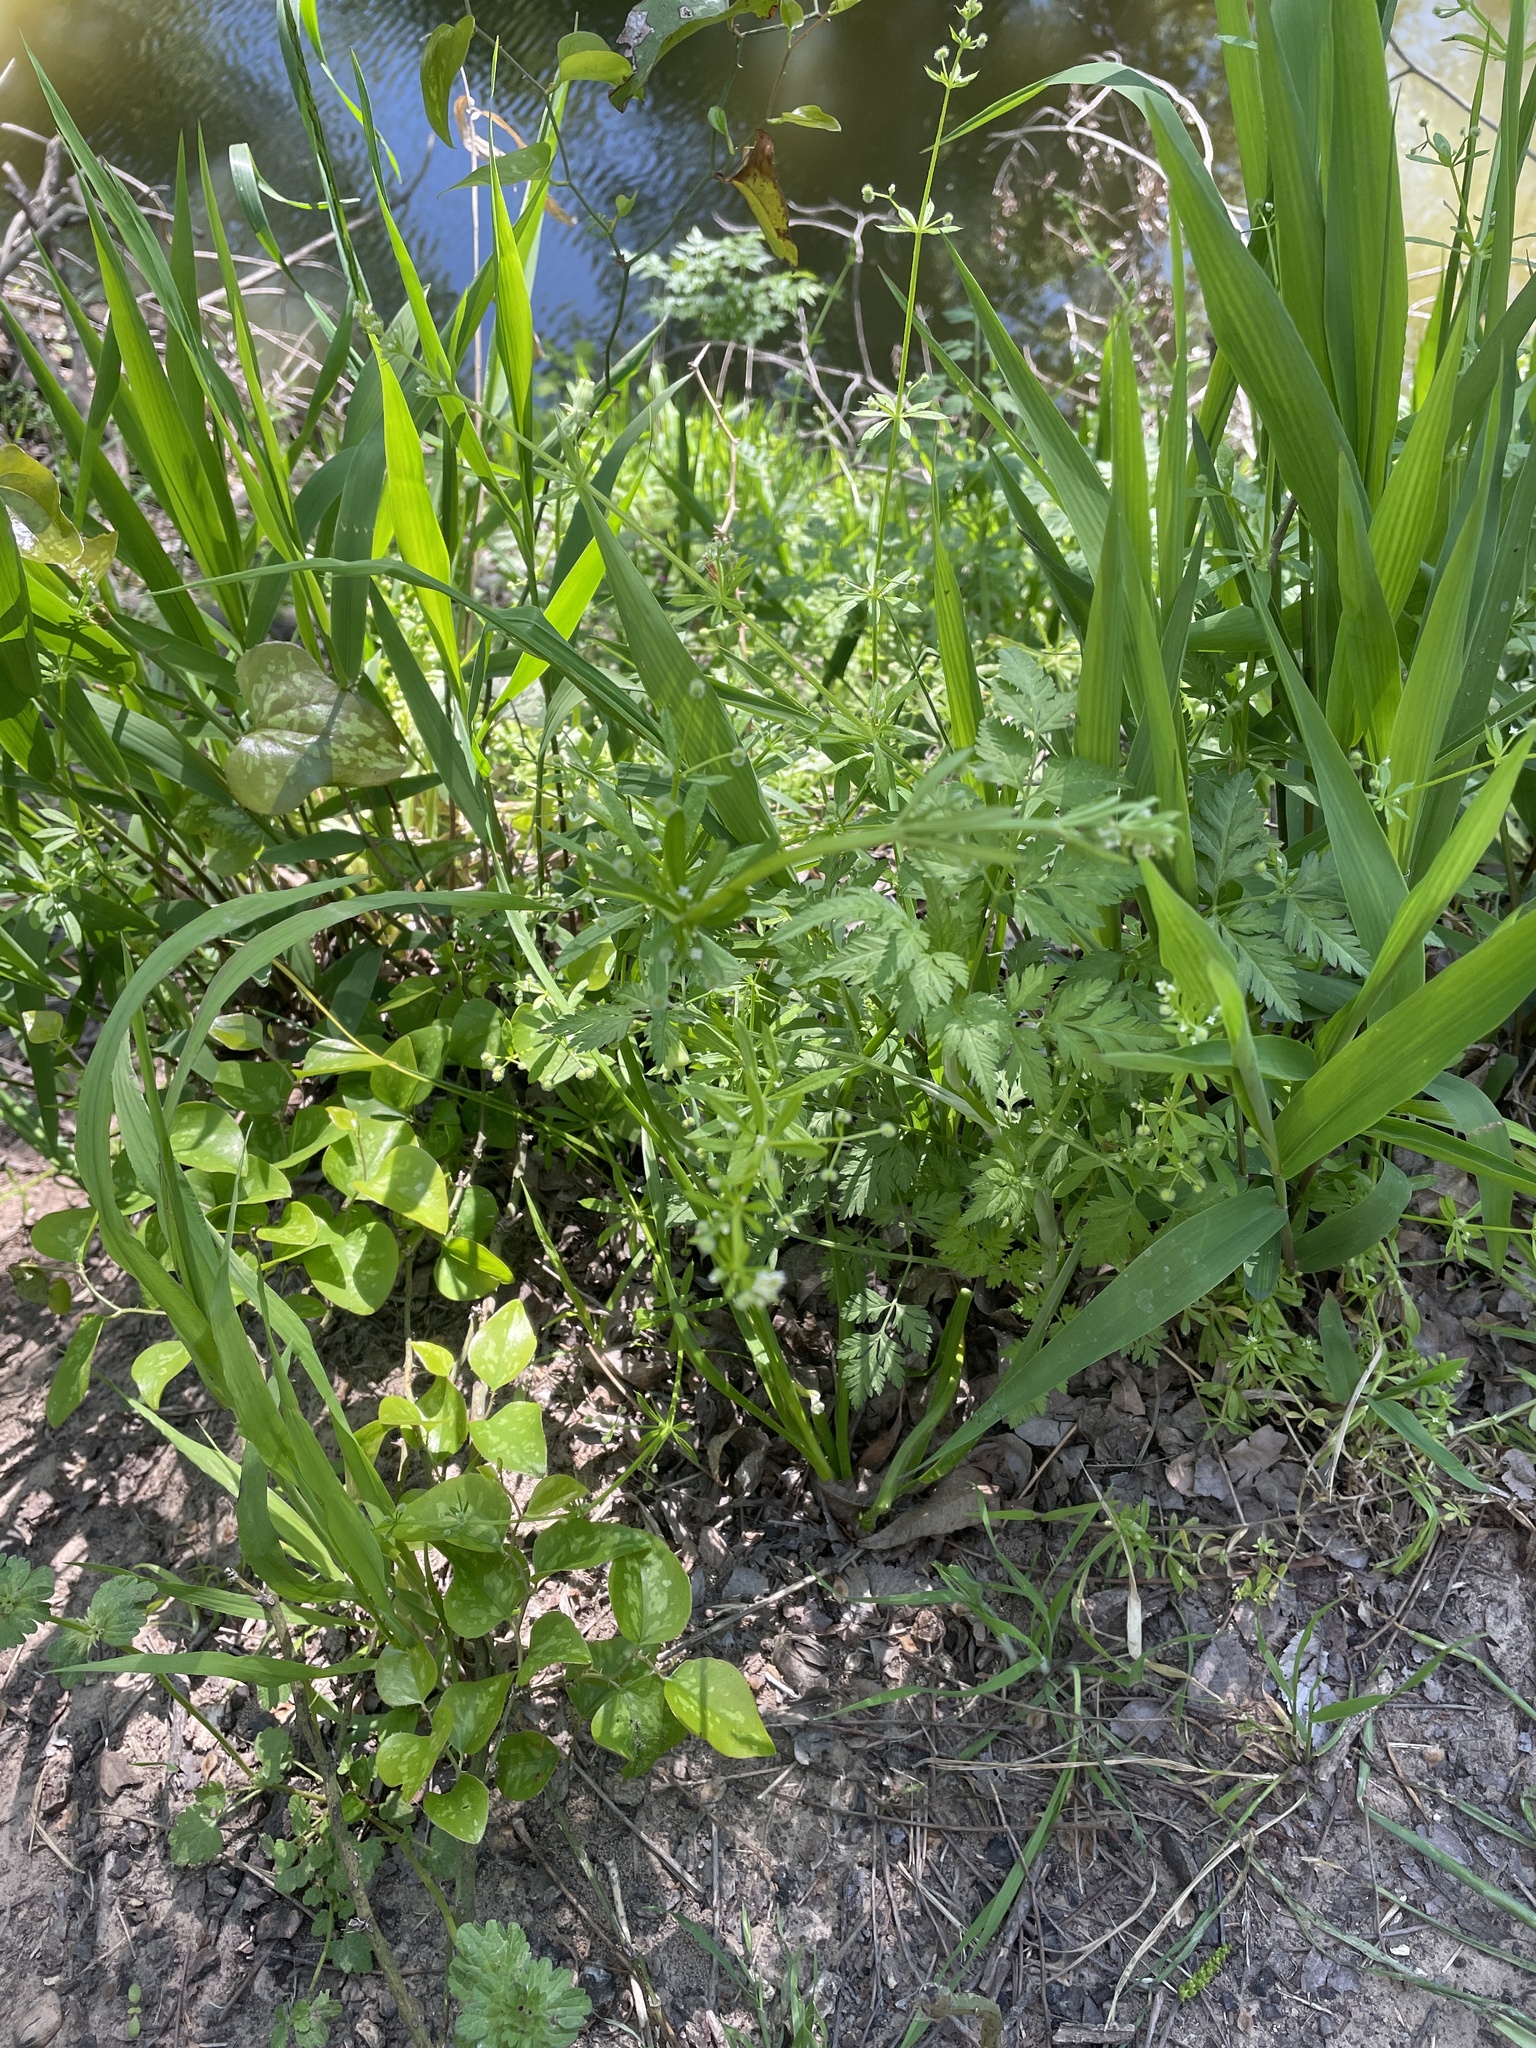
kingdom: Plantae
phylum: Tracheophyta
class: Magnoliopsida
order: Gentianales
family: Rubiaceae
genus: Galium
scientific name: Galium aparine
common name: Cleavers
